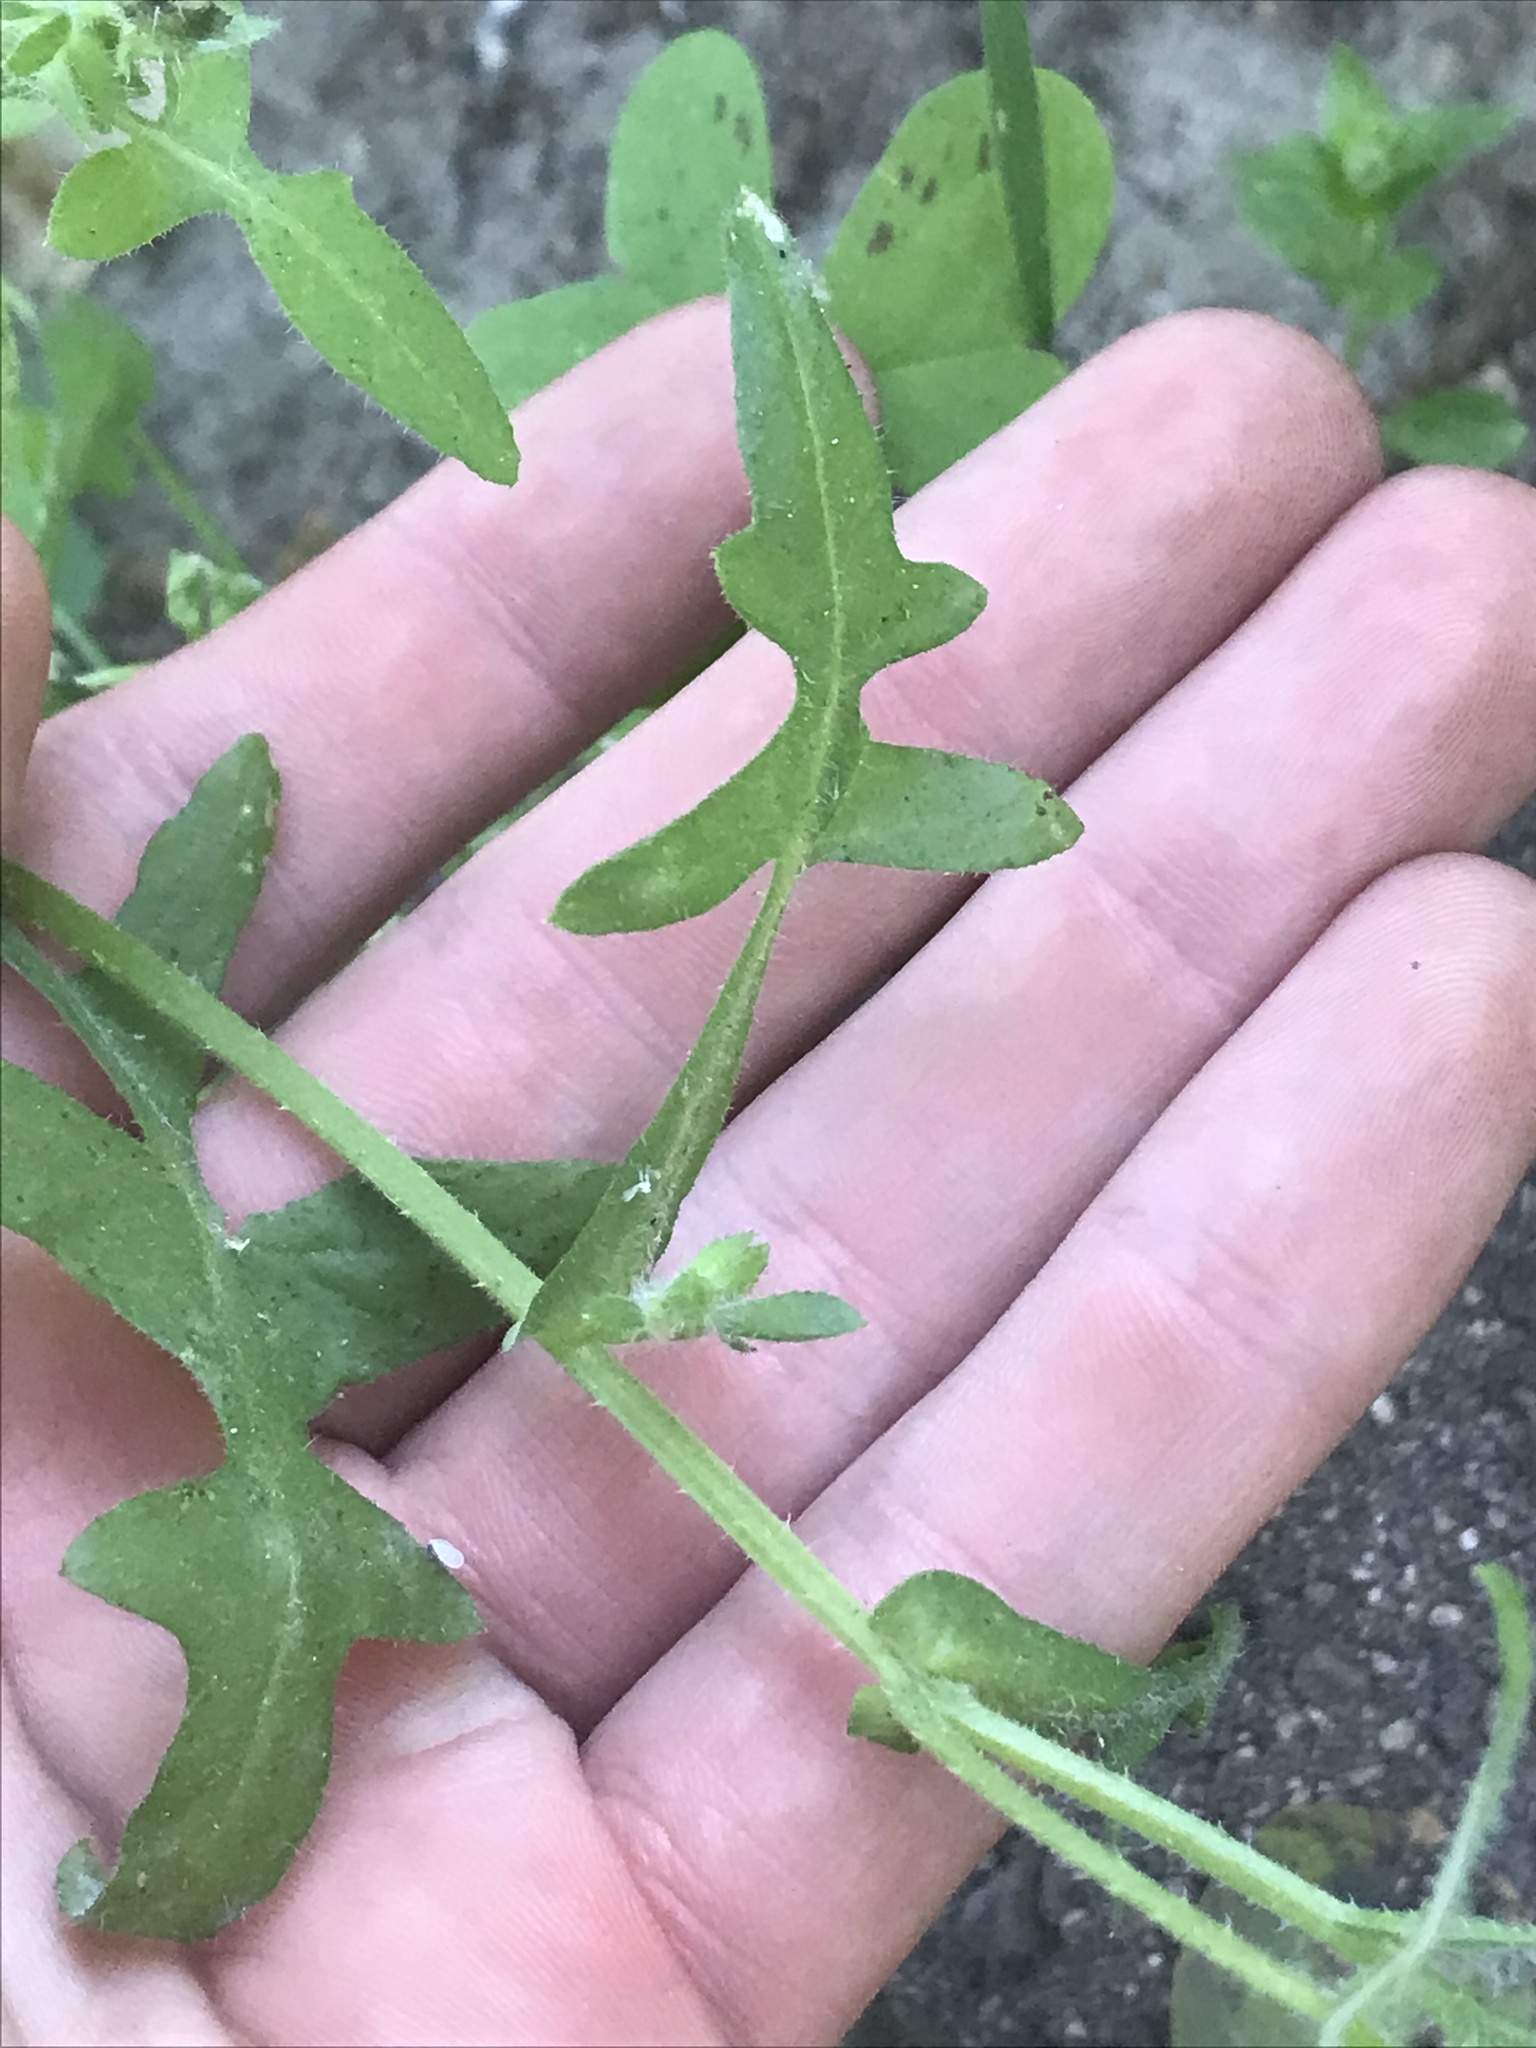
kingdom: Plantae
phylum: Tracheophyta
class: Magnoliopsida
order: Boraginales
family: Hydrophyllaceae
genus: Pholistoma
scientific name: Pholistoma auritum
